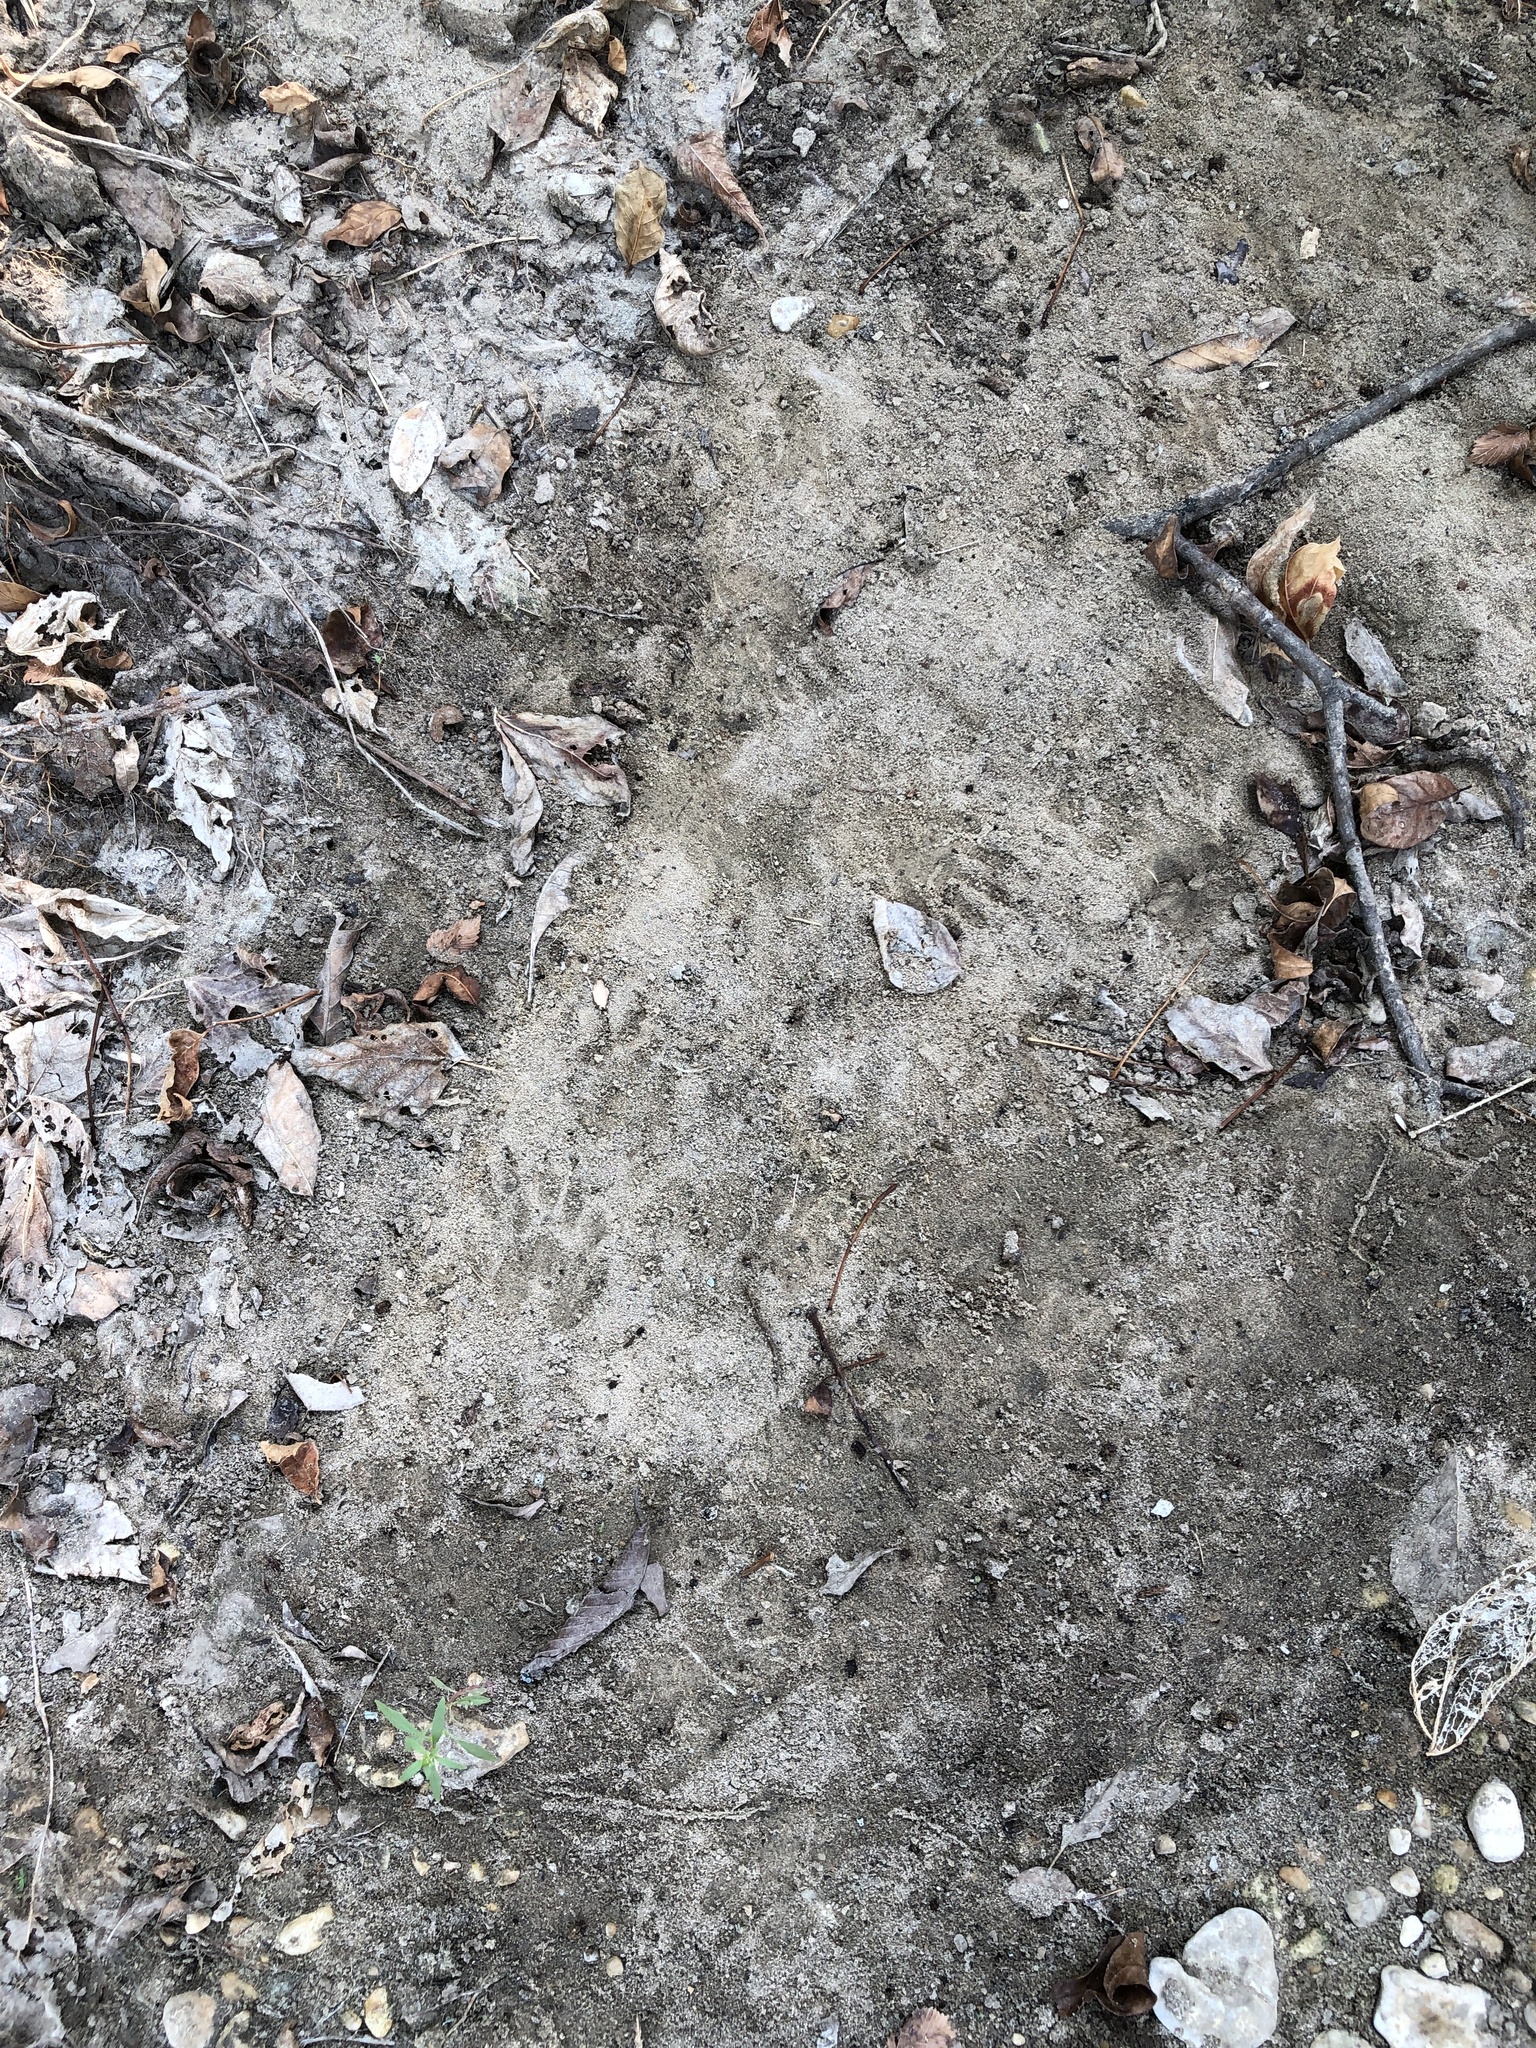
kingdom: Animalia
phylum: Chordata
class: Mammalia
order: Carnivora
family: Procyonidae
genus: Procyon
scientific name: Procyon lotor
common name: Raccoon
